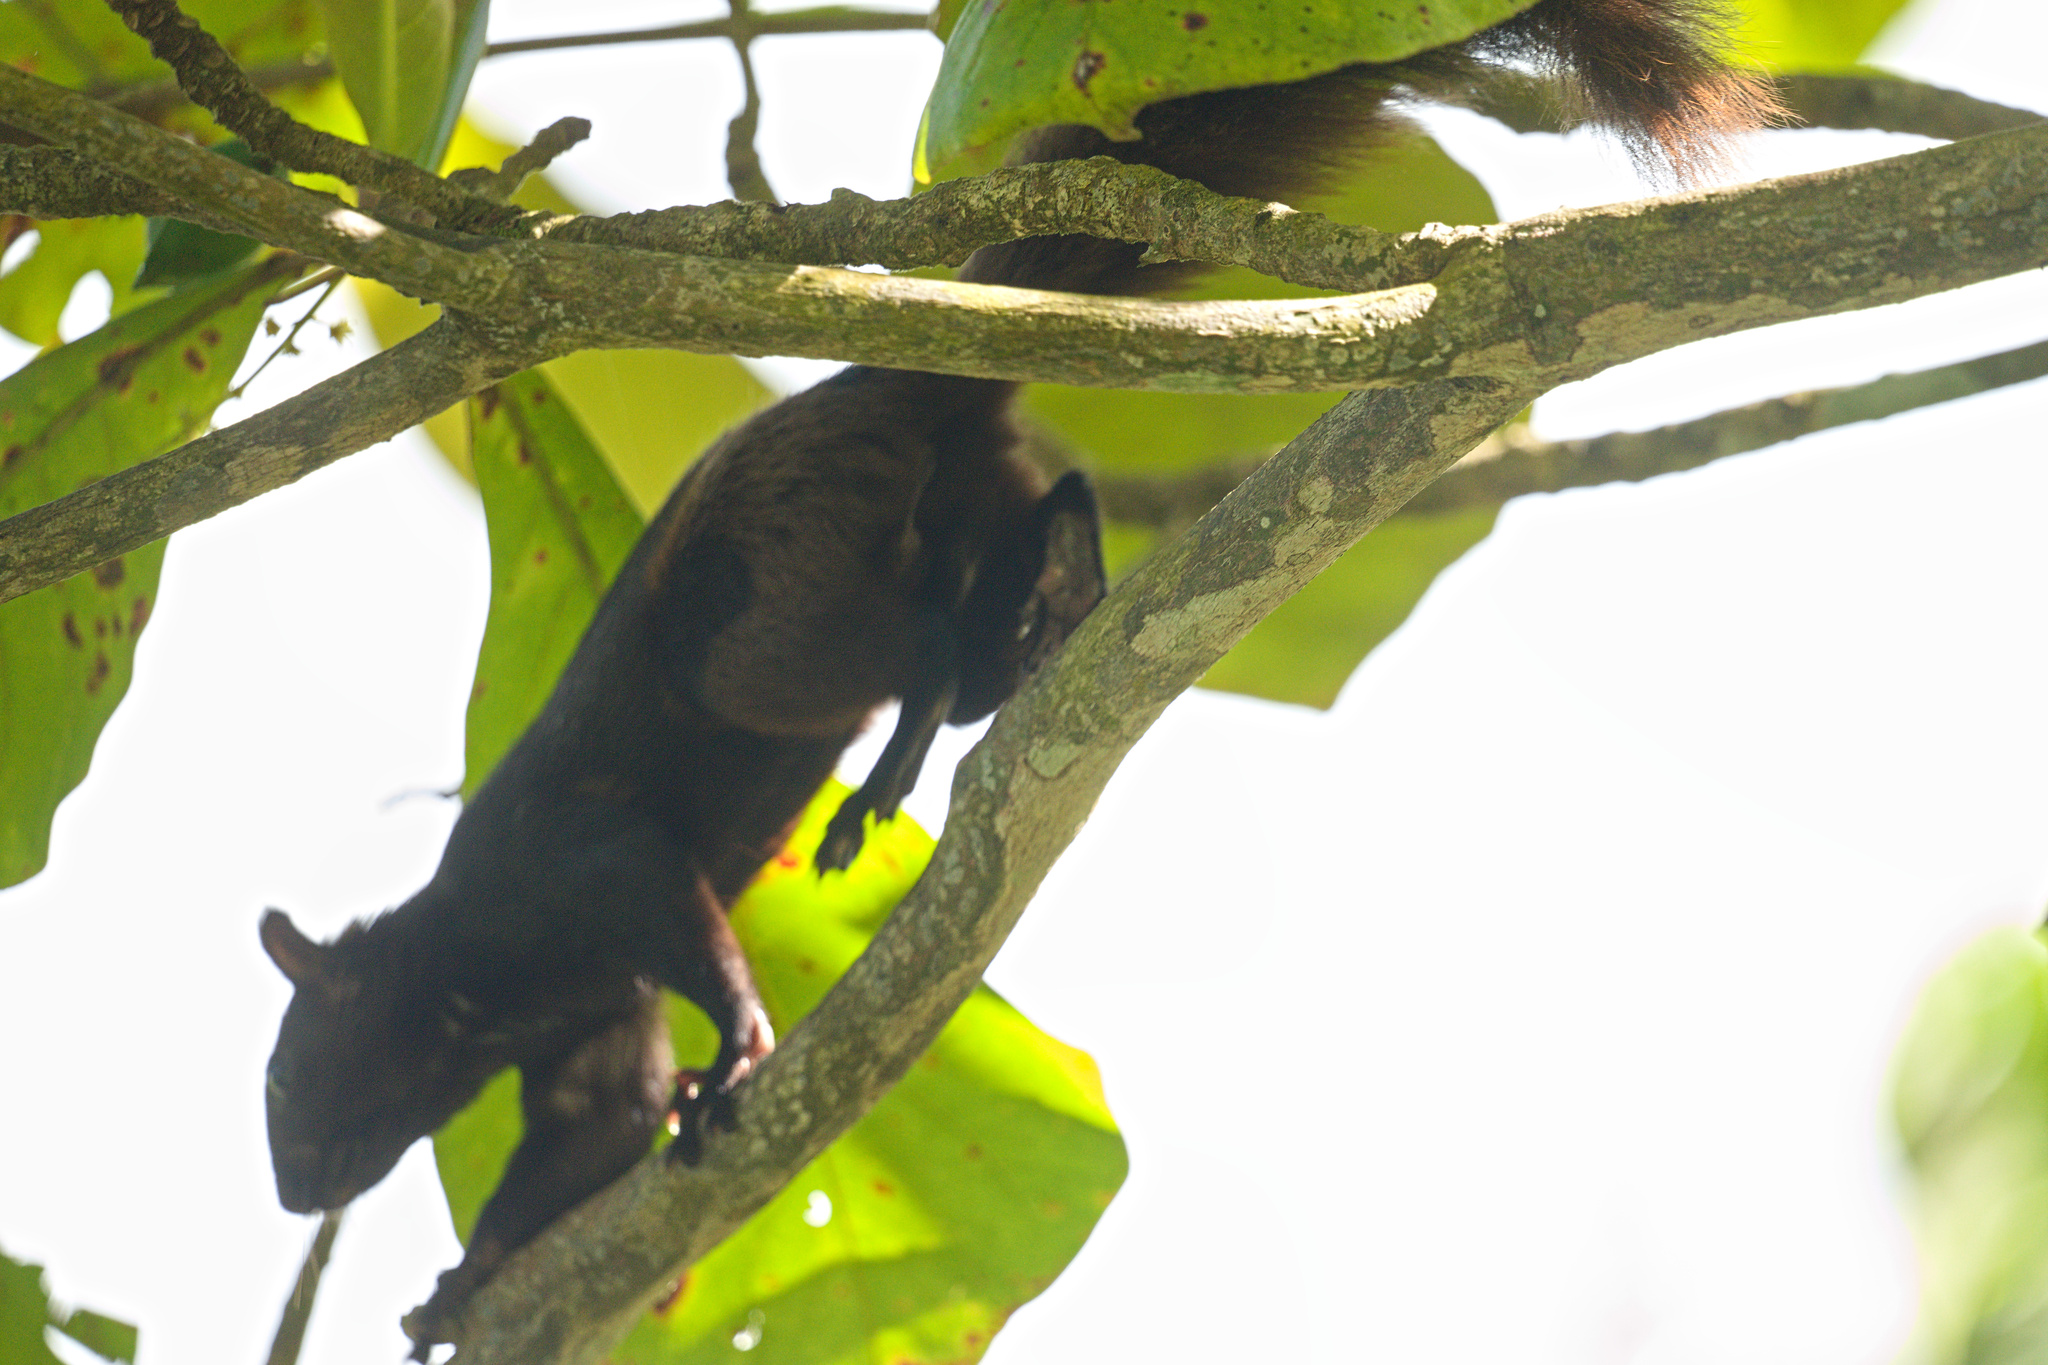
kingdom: Animalia
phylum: Chordata
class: Mammalia
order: Rodentia
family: Sciuridae
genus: Sciurus
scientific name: Sciurus variegatoides
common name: Variegated squirrel
